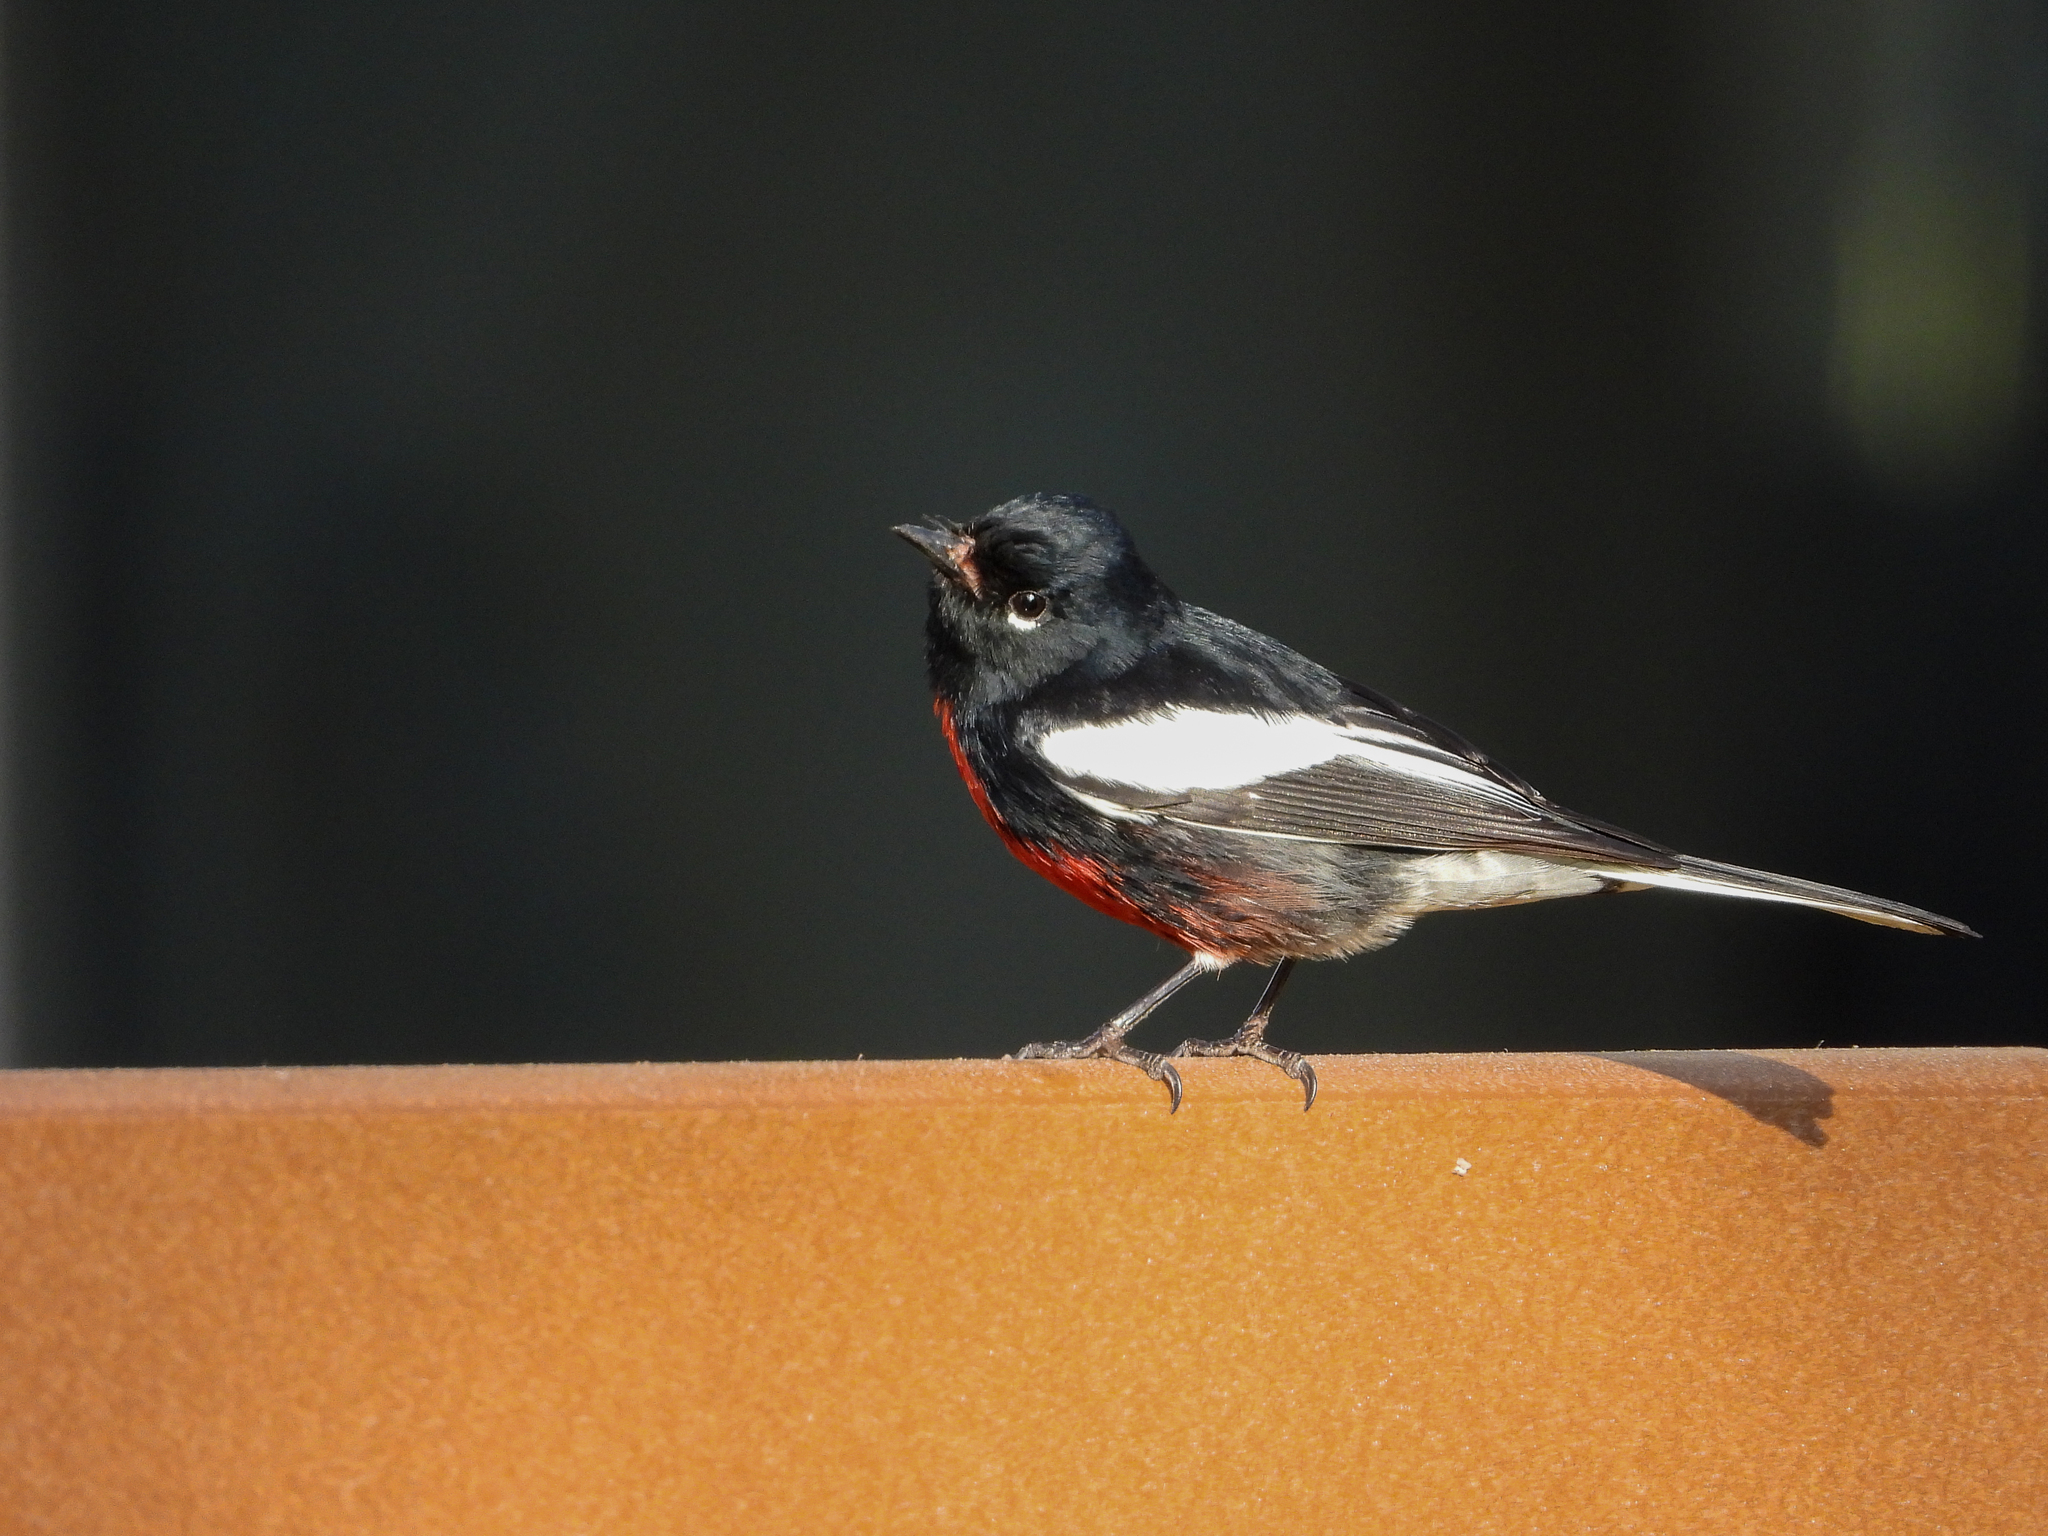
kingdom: Animalia
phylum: Chordata
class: Aves
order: Passeriformes
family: Parulidae
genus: Myioborus
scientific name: Myioborus pictus
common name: Painted whitestart
